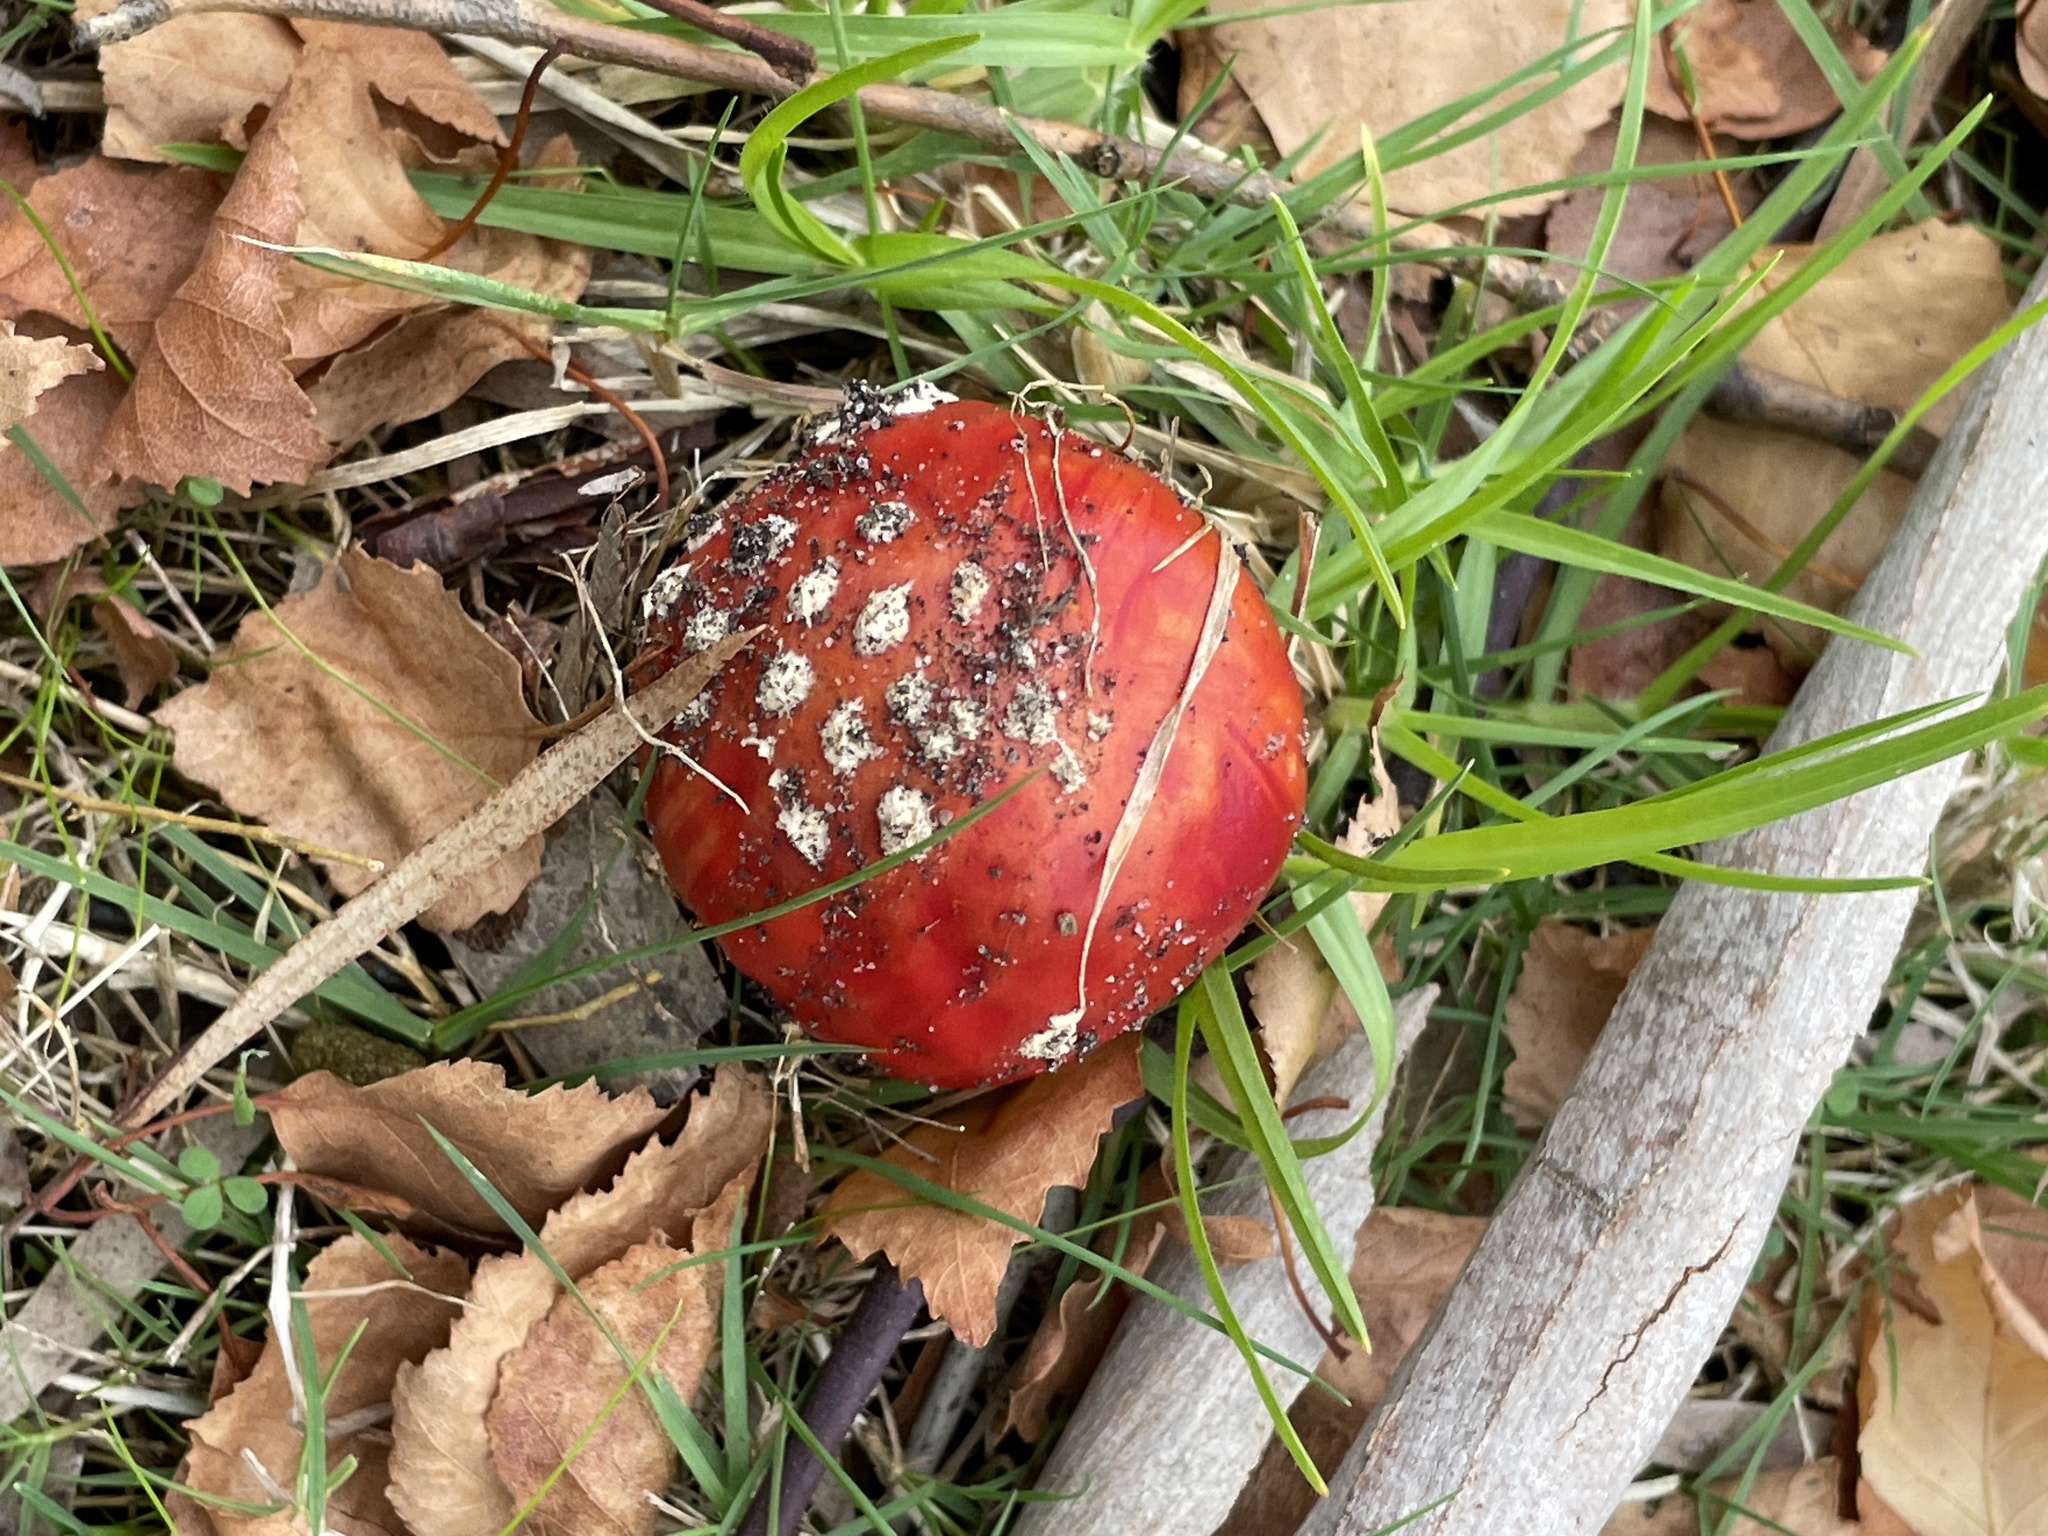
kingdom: Fungi
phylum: Basidiomycota
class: Agaricomycetes
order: Agaricales
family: Amanitaceae
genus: Amanita
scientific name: Amanita muscaria
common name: Fly agaric
